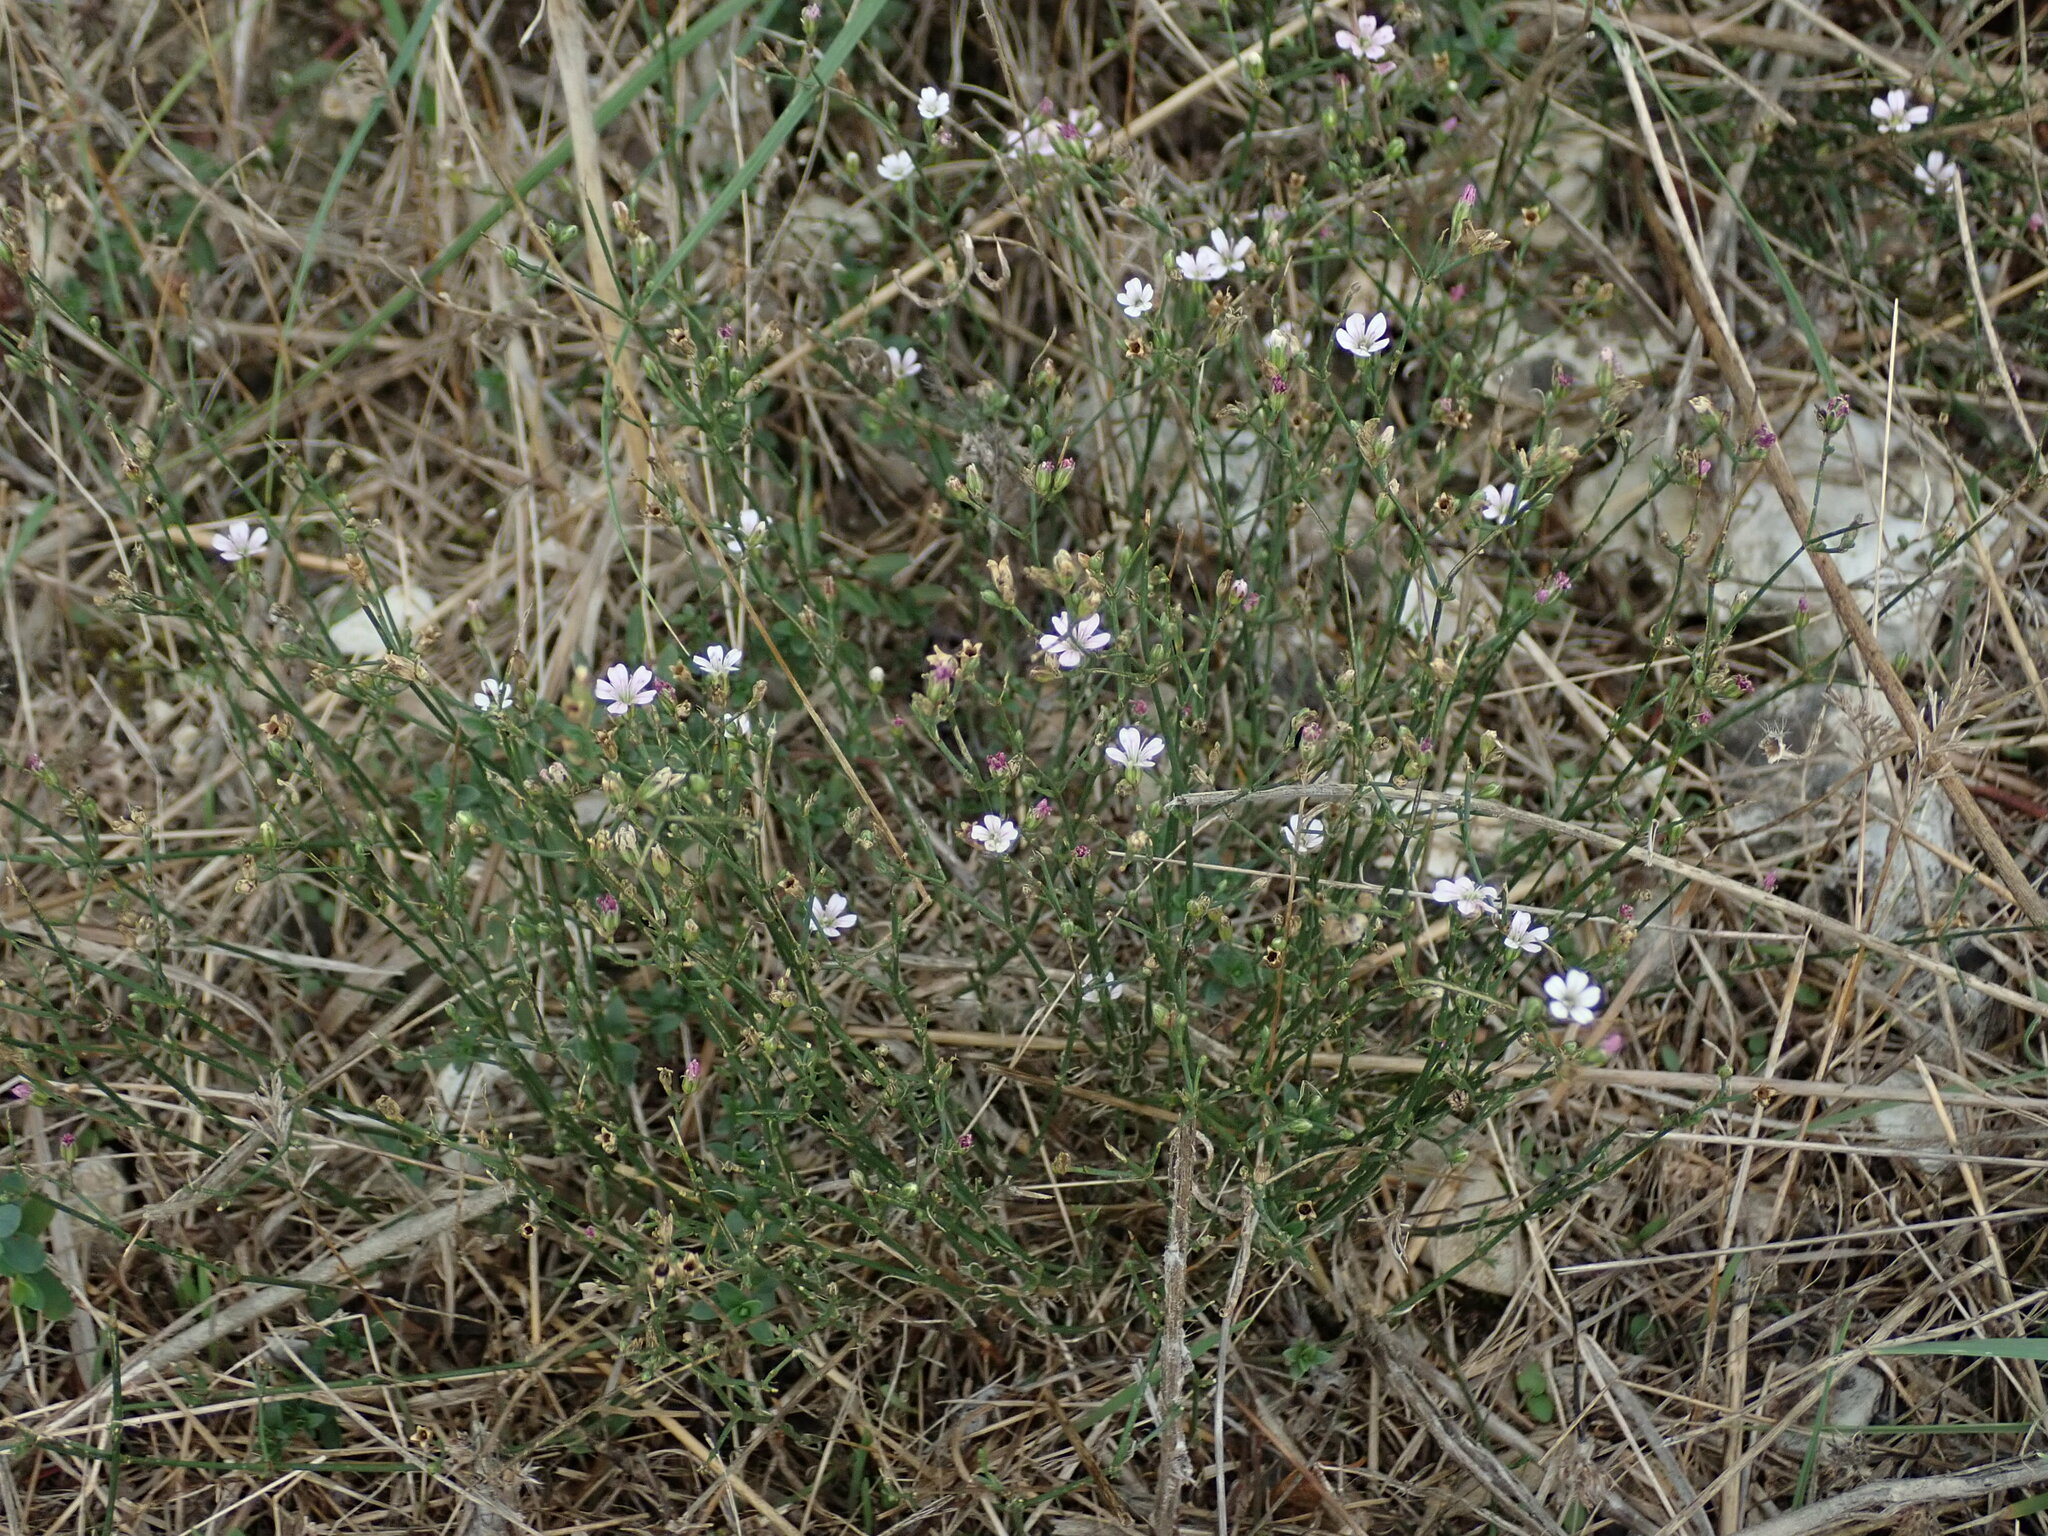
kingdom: Plantae
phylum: Tracheophyta
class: Magnoliopsida
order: Caryophyllales
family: Caryophyllaceae
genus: Petrorhagia
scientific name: Petrorhagia saxifraga
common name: Tunicflower
